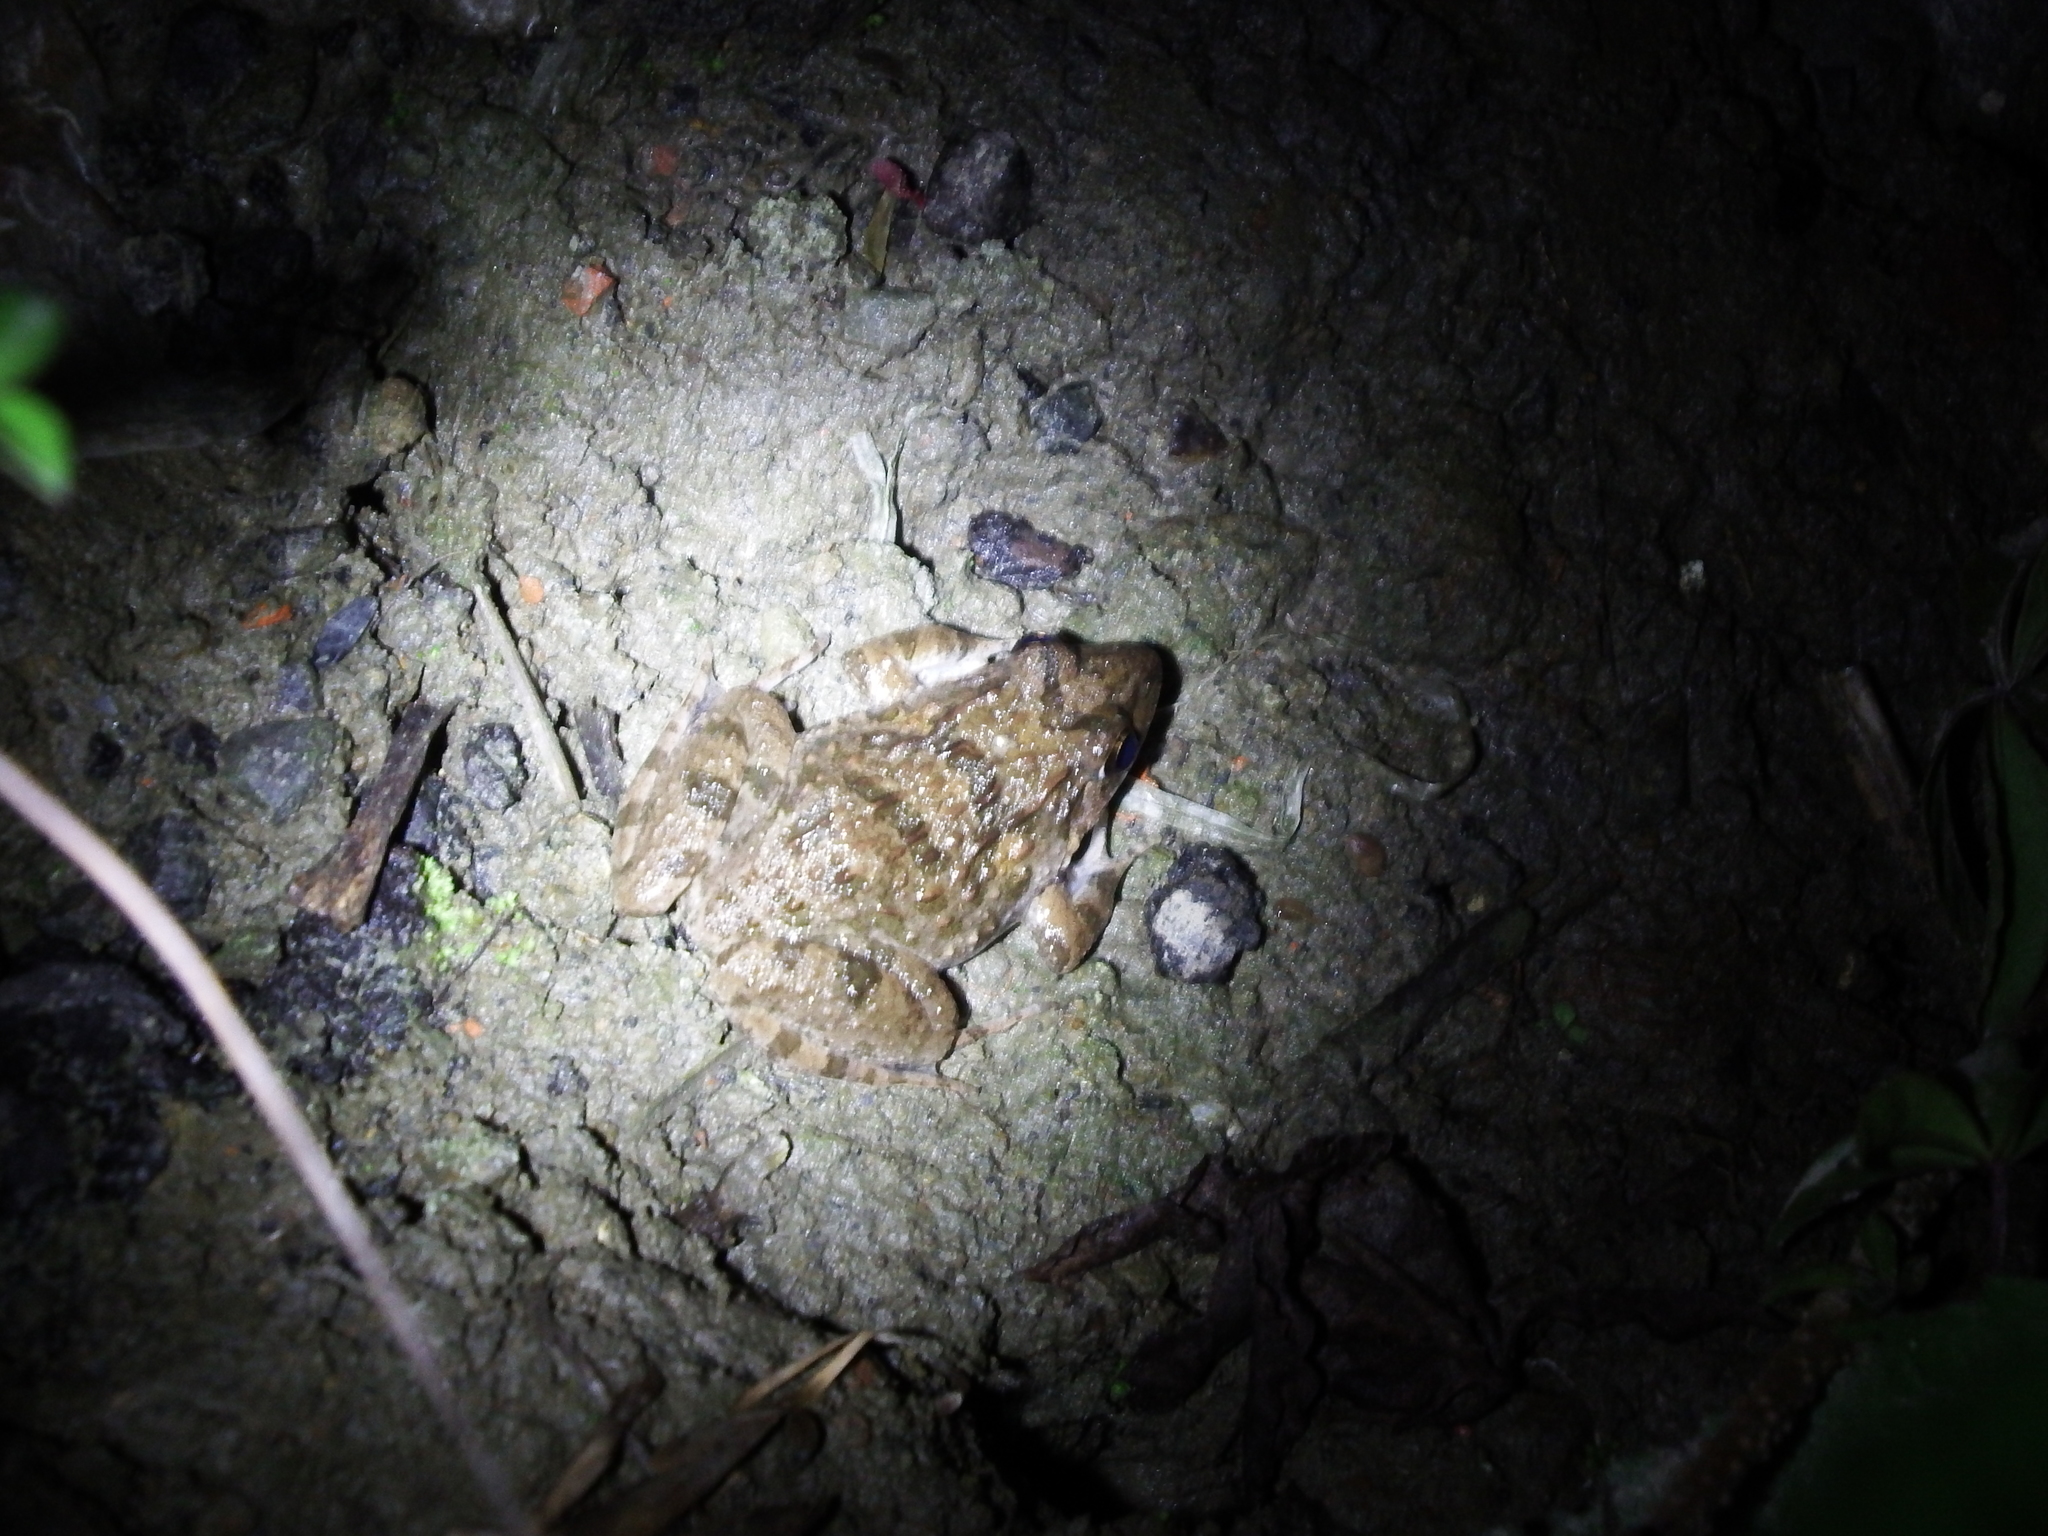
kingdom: Animalia
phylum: Chordata
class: Amphibia
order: Anura
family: Dicroglossidae
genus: Fejervarya
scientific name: Fejervarya limnocharis
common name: Asian grass frog/common pond frog/field frog/grass frog/indian rice frog
